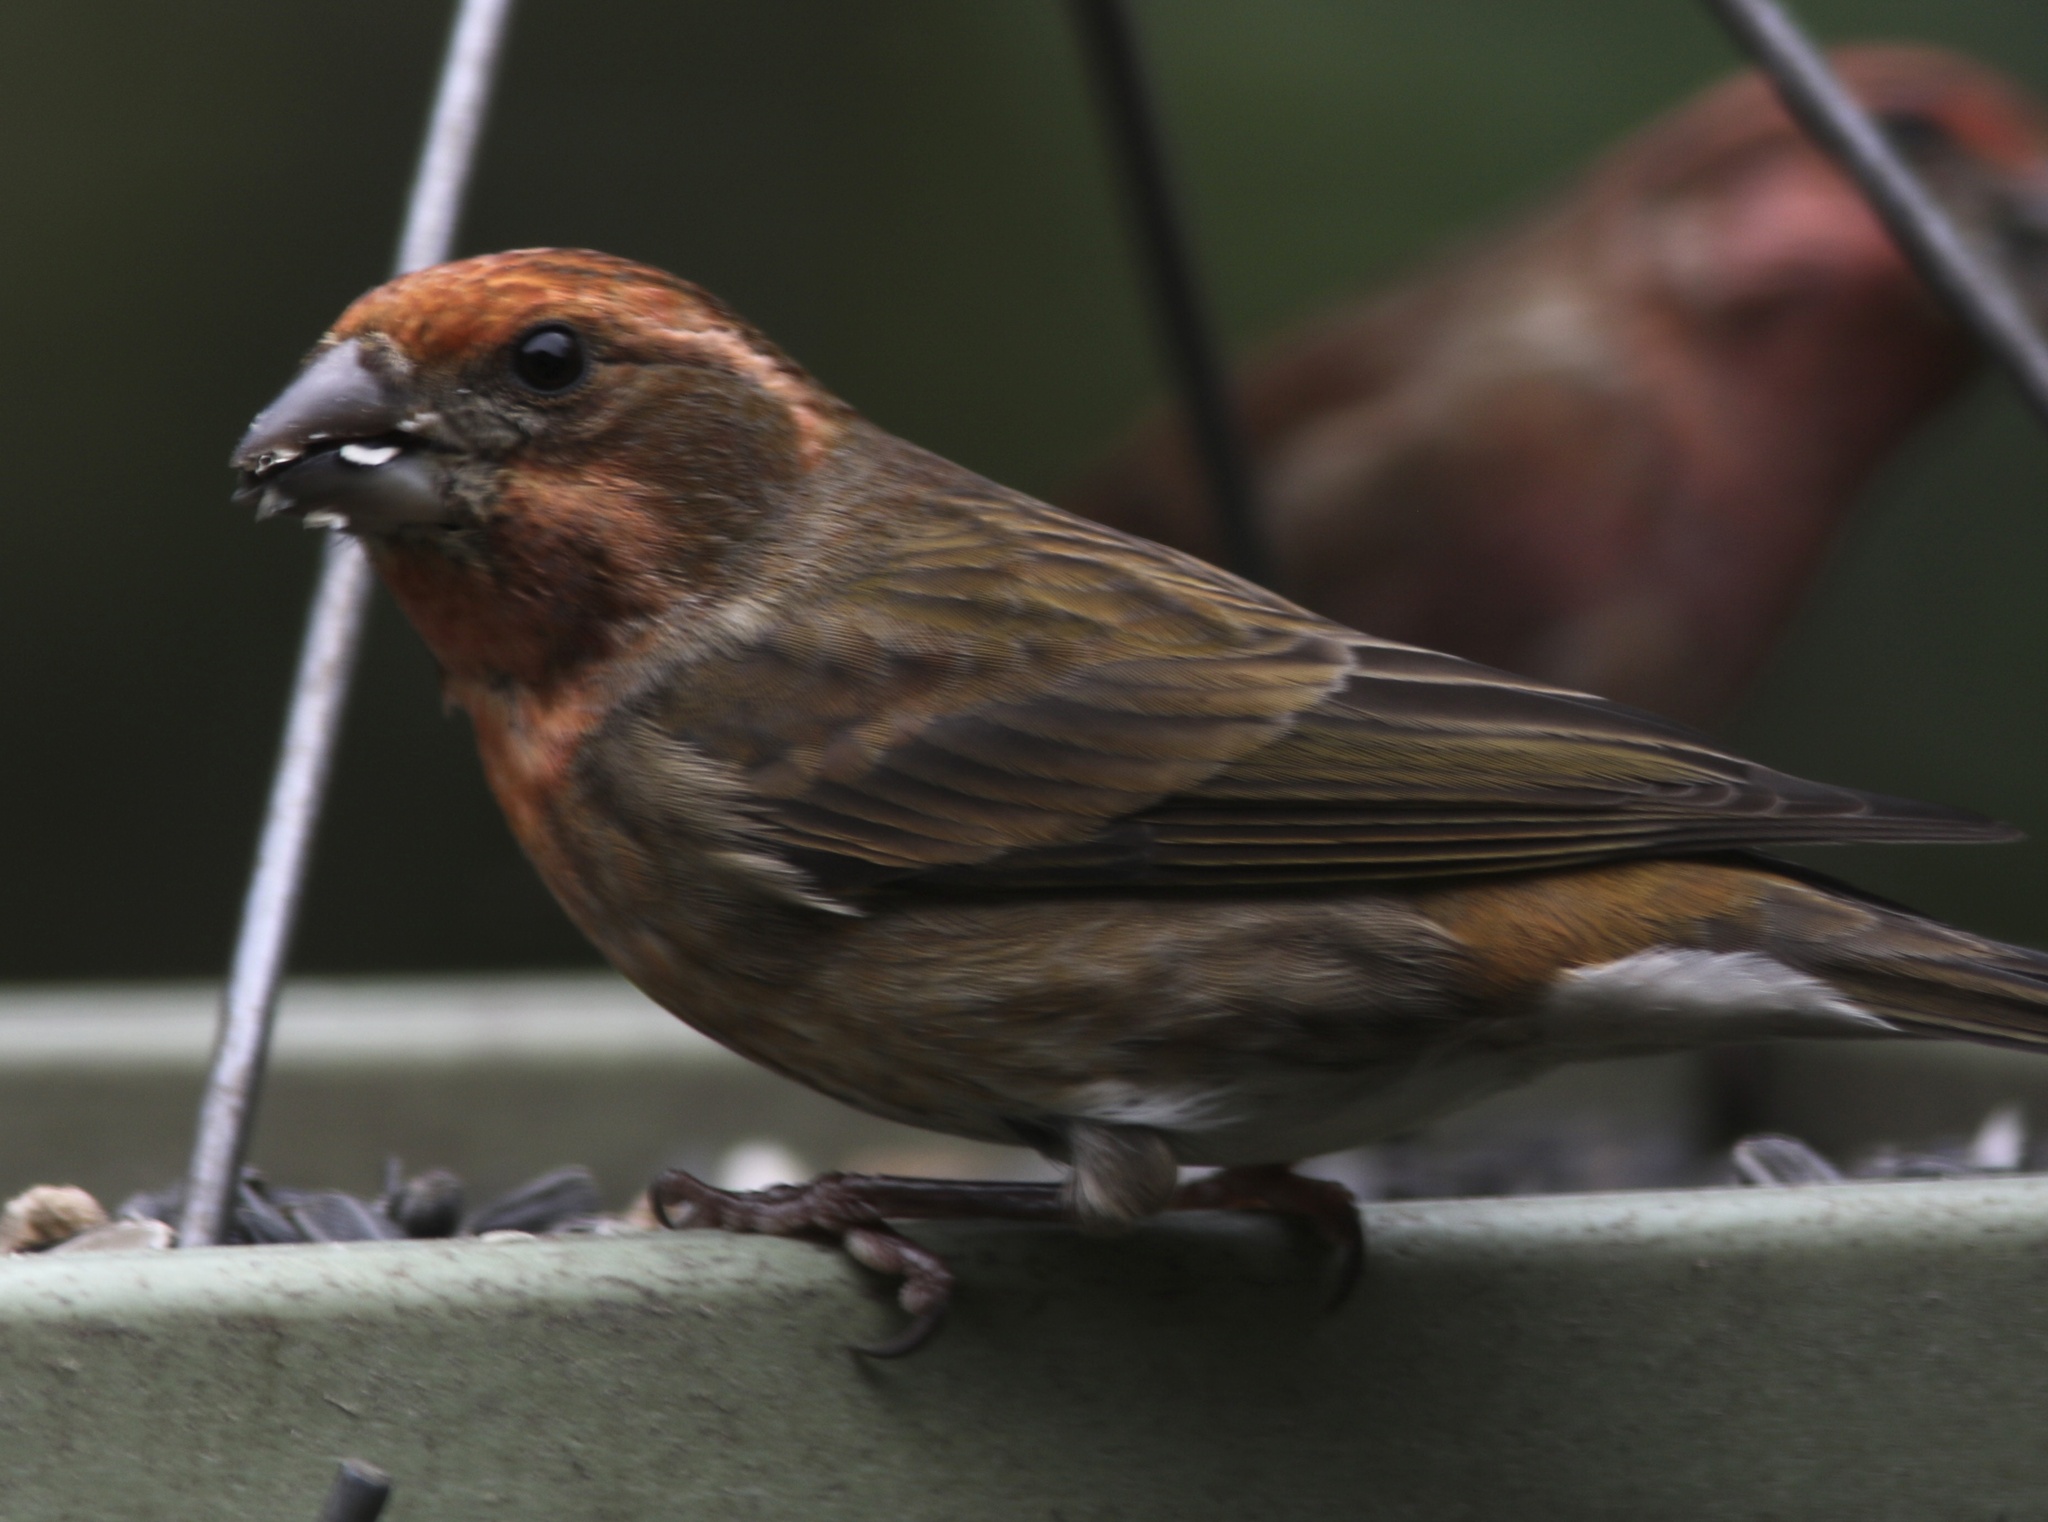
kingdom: Animalia
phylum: Chordata
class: Aves
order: Passeriformes
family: Fringillidae
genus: Haemorhous
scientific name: Haemorhous purpureus
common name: Purple finch
